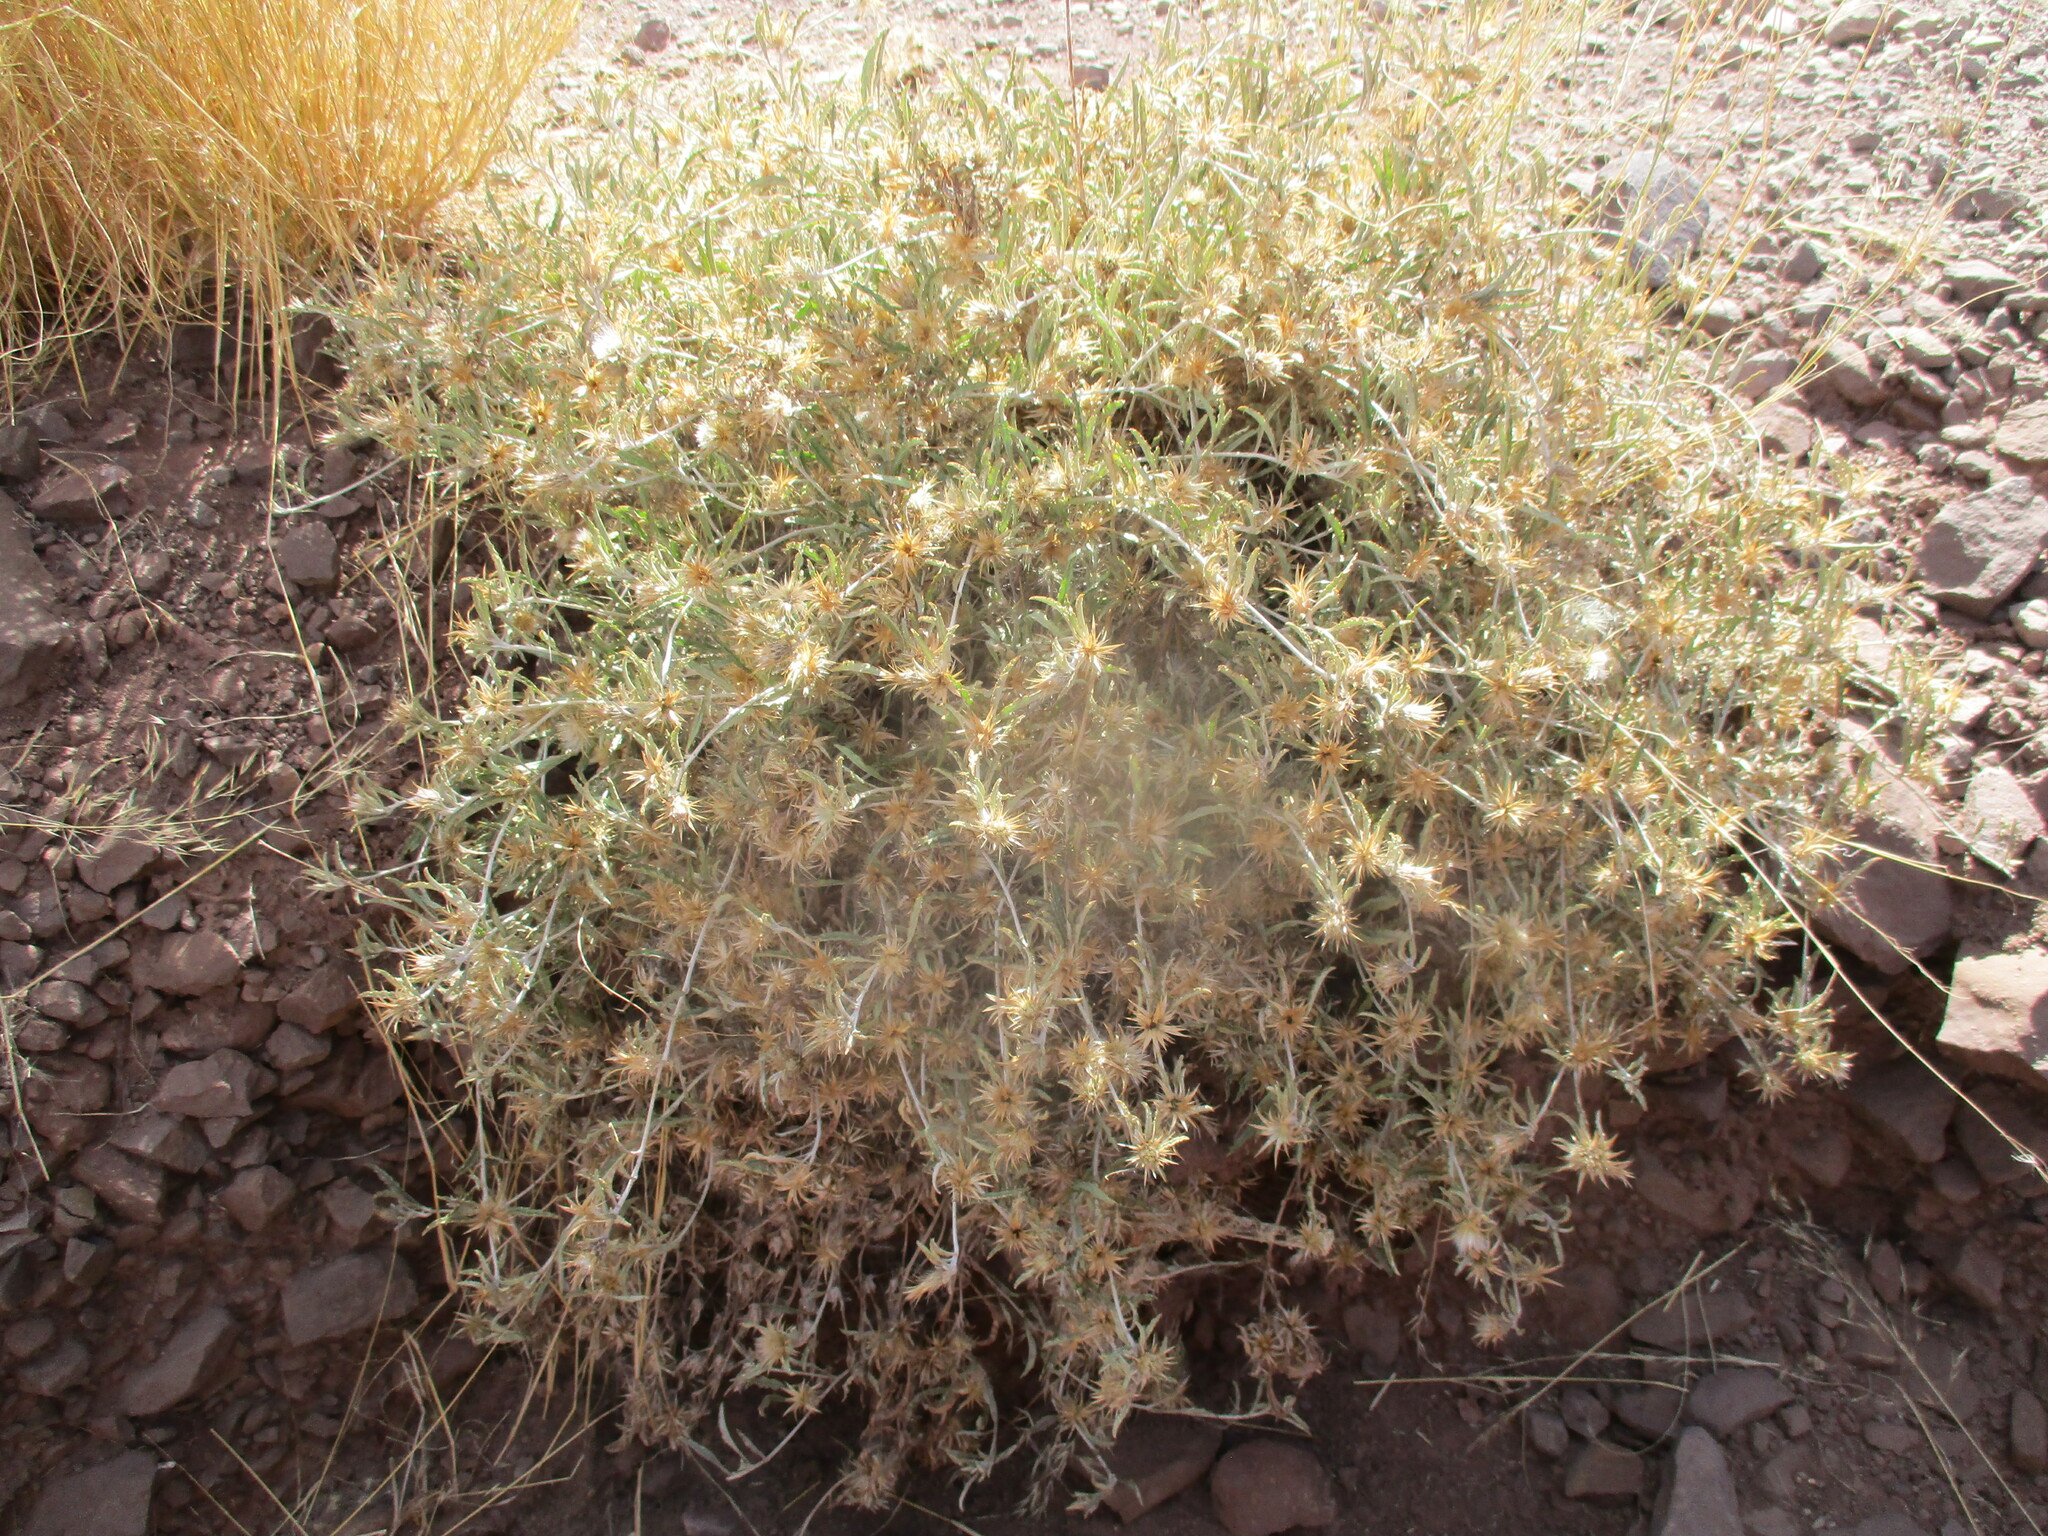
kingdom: Plantae
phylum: Tracheophyta
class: Magnoliopsida
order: Asterales
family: Asteraceae
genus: Dicoma
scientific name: Dicoma capensis
